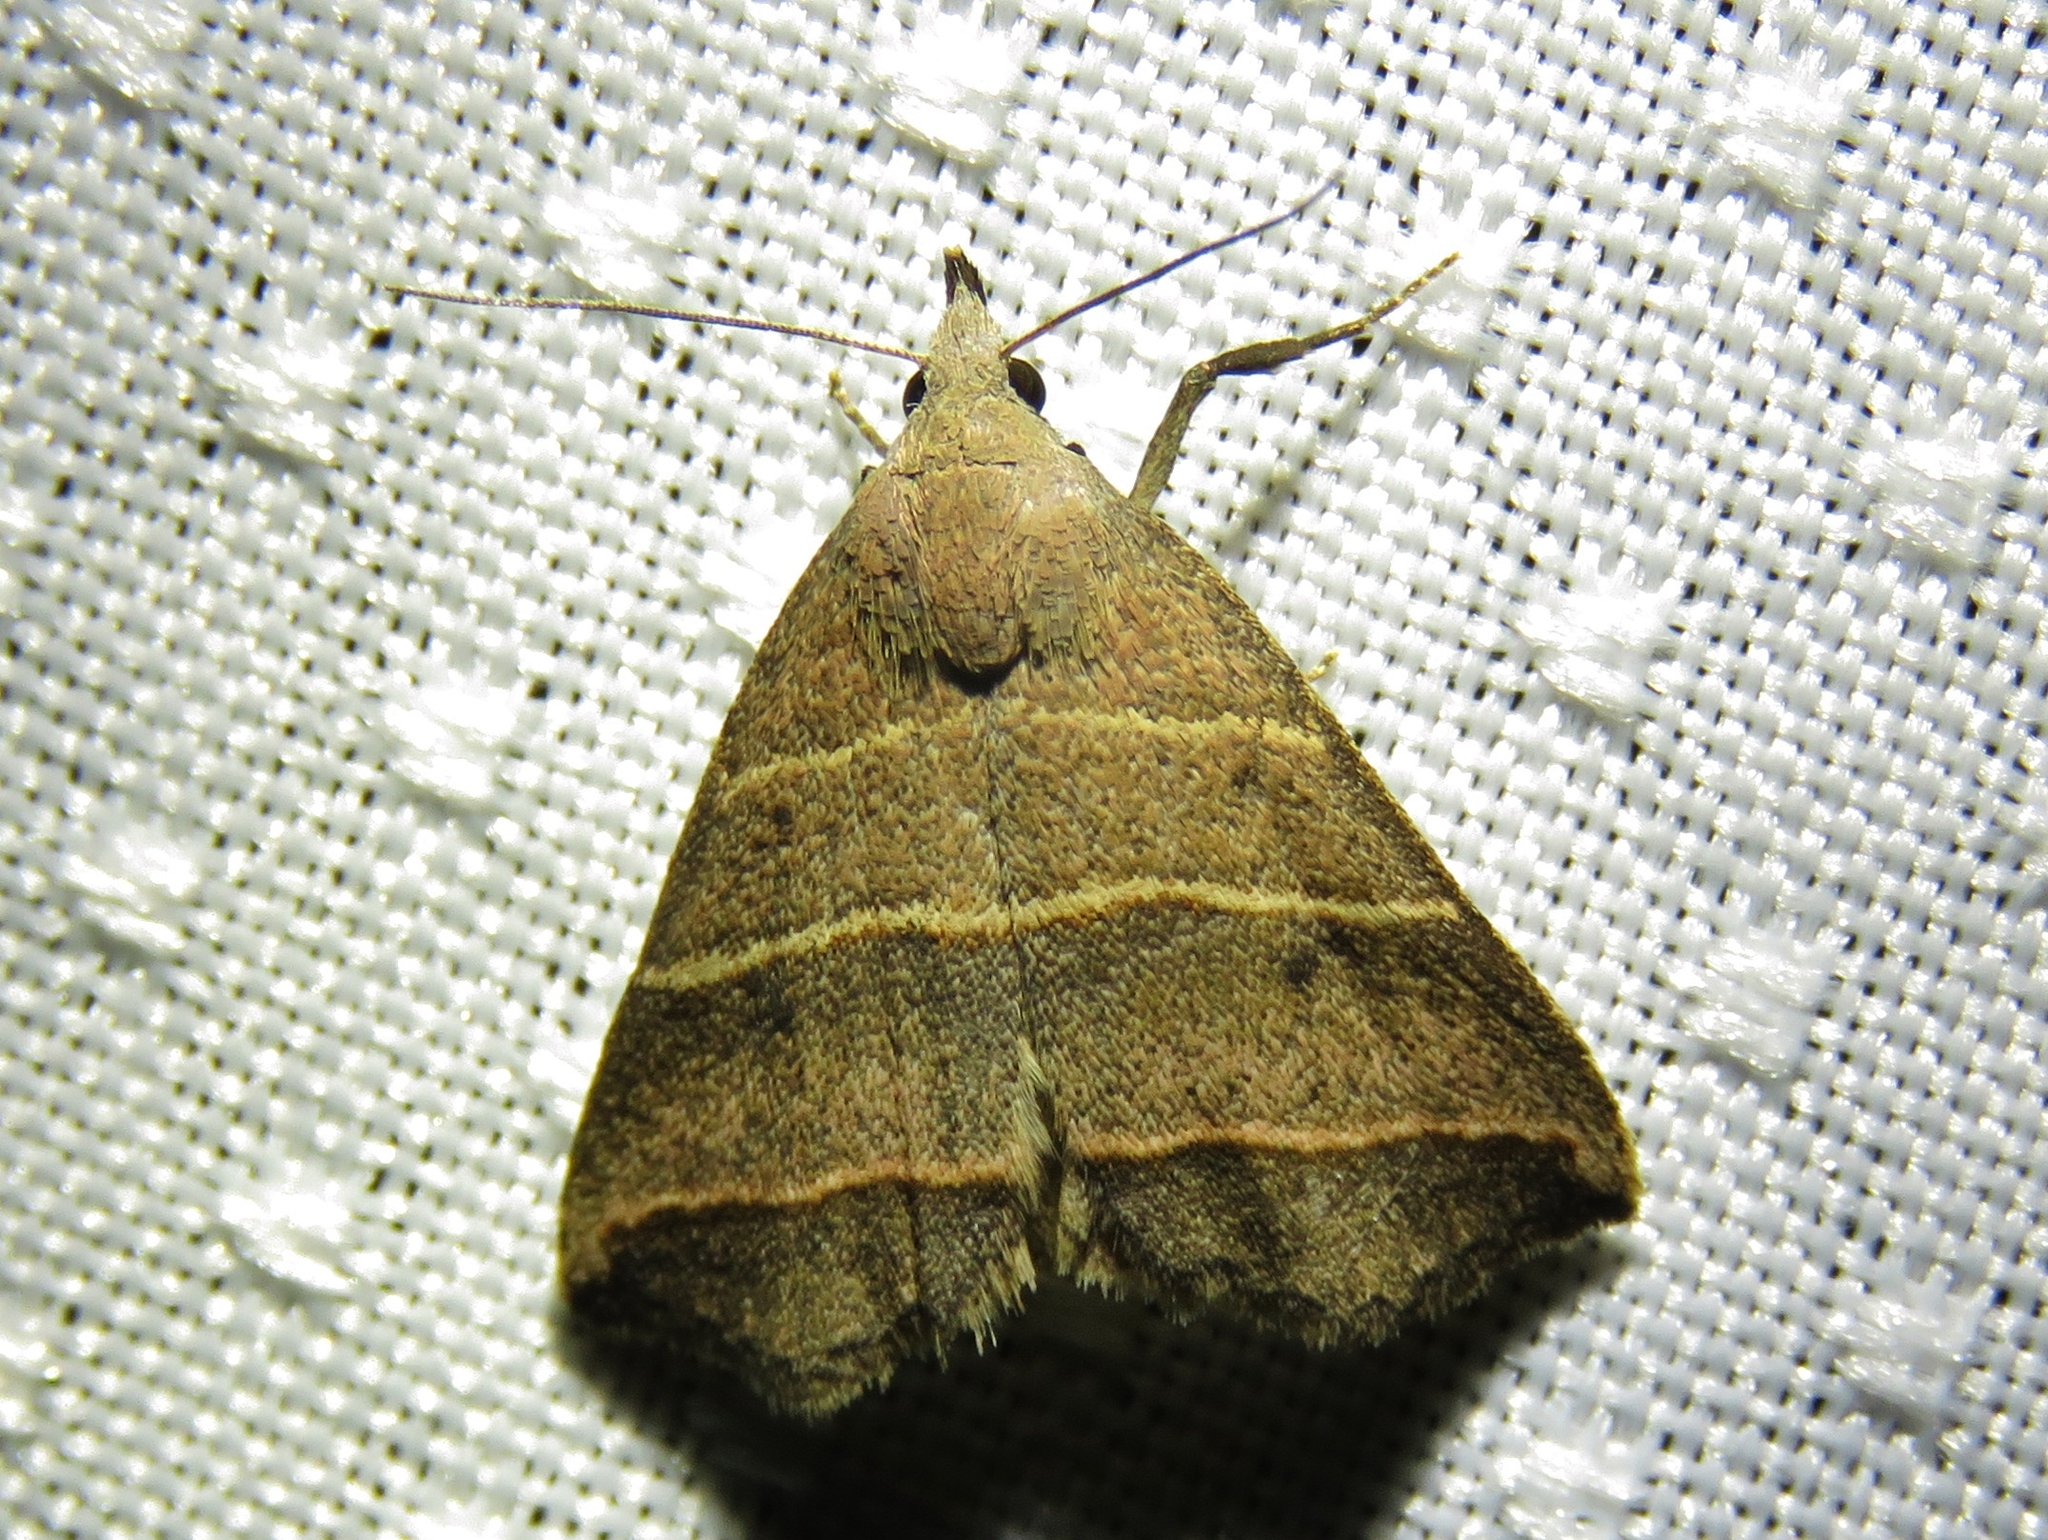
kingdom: Animalia
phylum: Arthropoda
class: Insecta
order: Lepidoptera
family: Erebidae
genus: Colobochyla
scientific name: Colobochyla interpuncta
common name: Yellow-lined owlet
